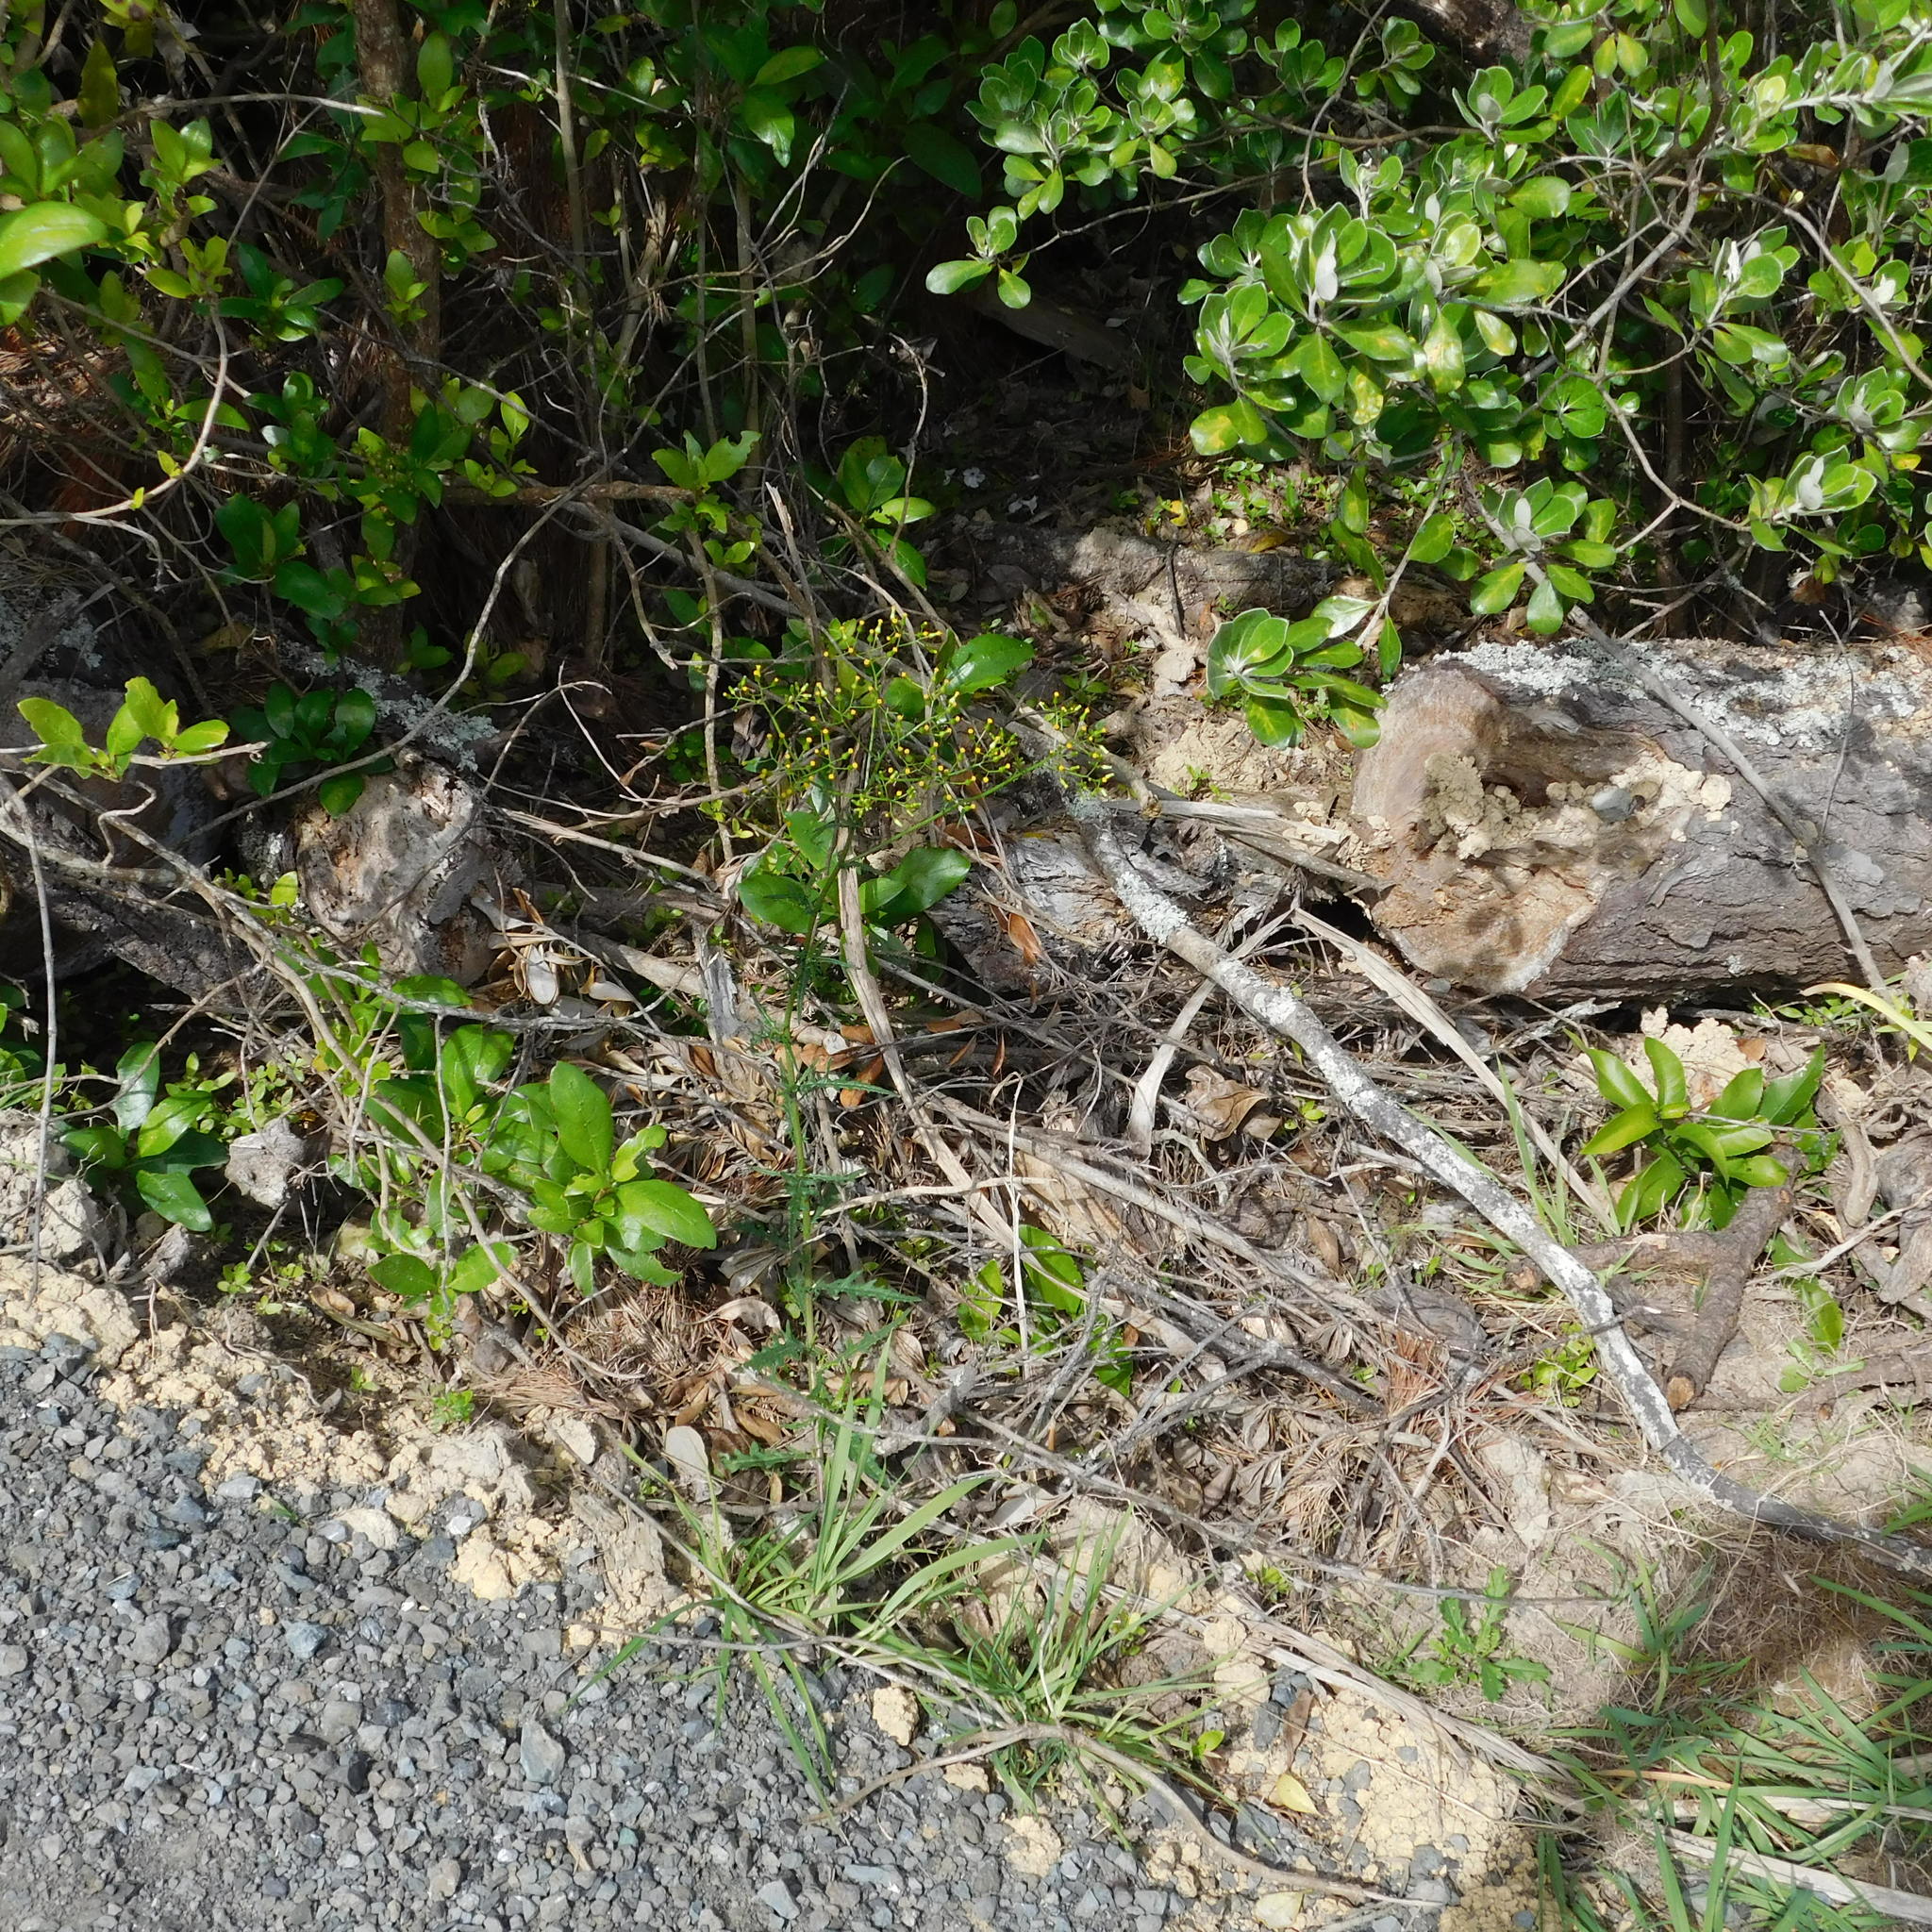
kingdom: Plantae
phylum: Tracheophyta
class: Magnoliopsida
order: Asterales
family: Asteraceae
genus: Senecio
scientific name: Senecio hispidulus
